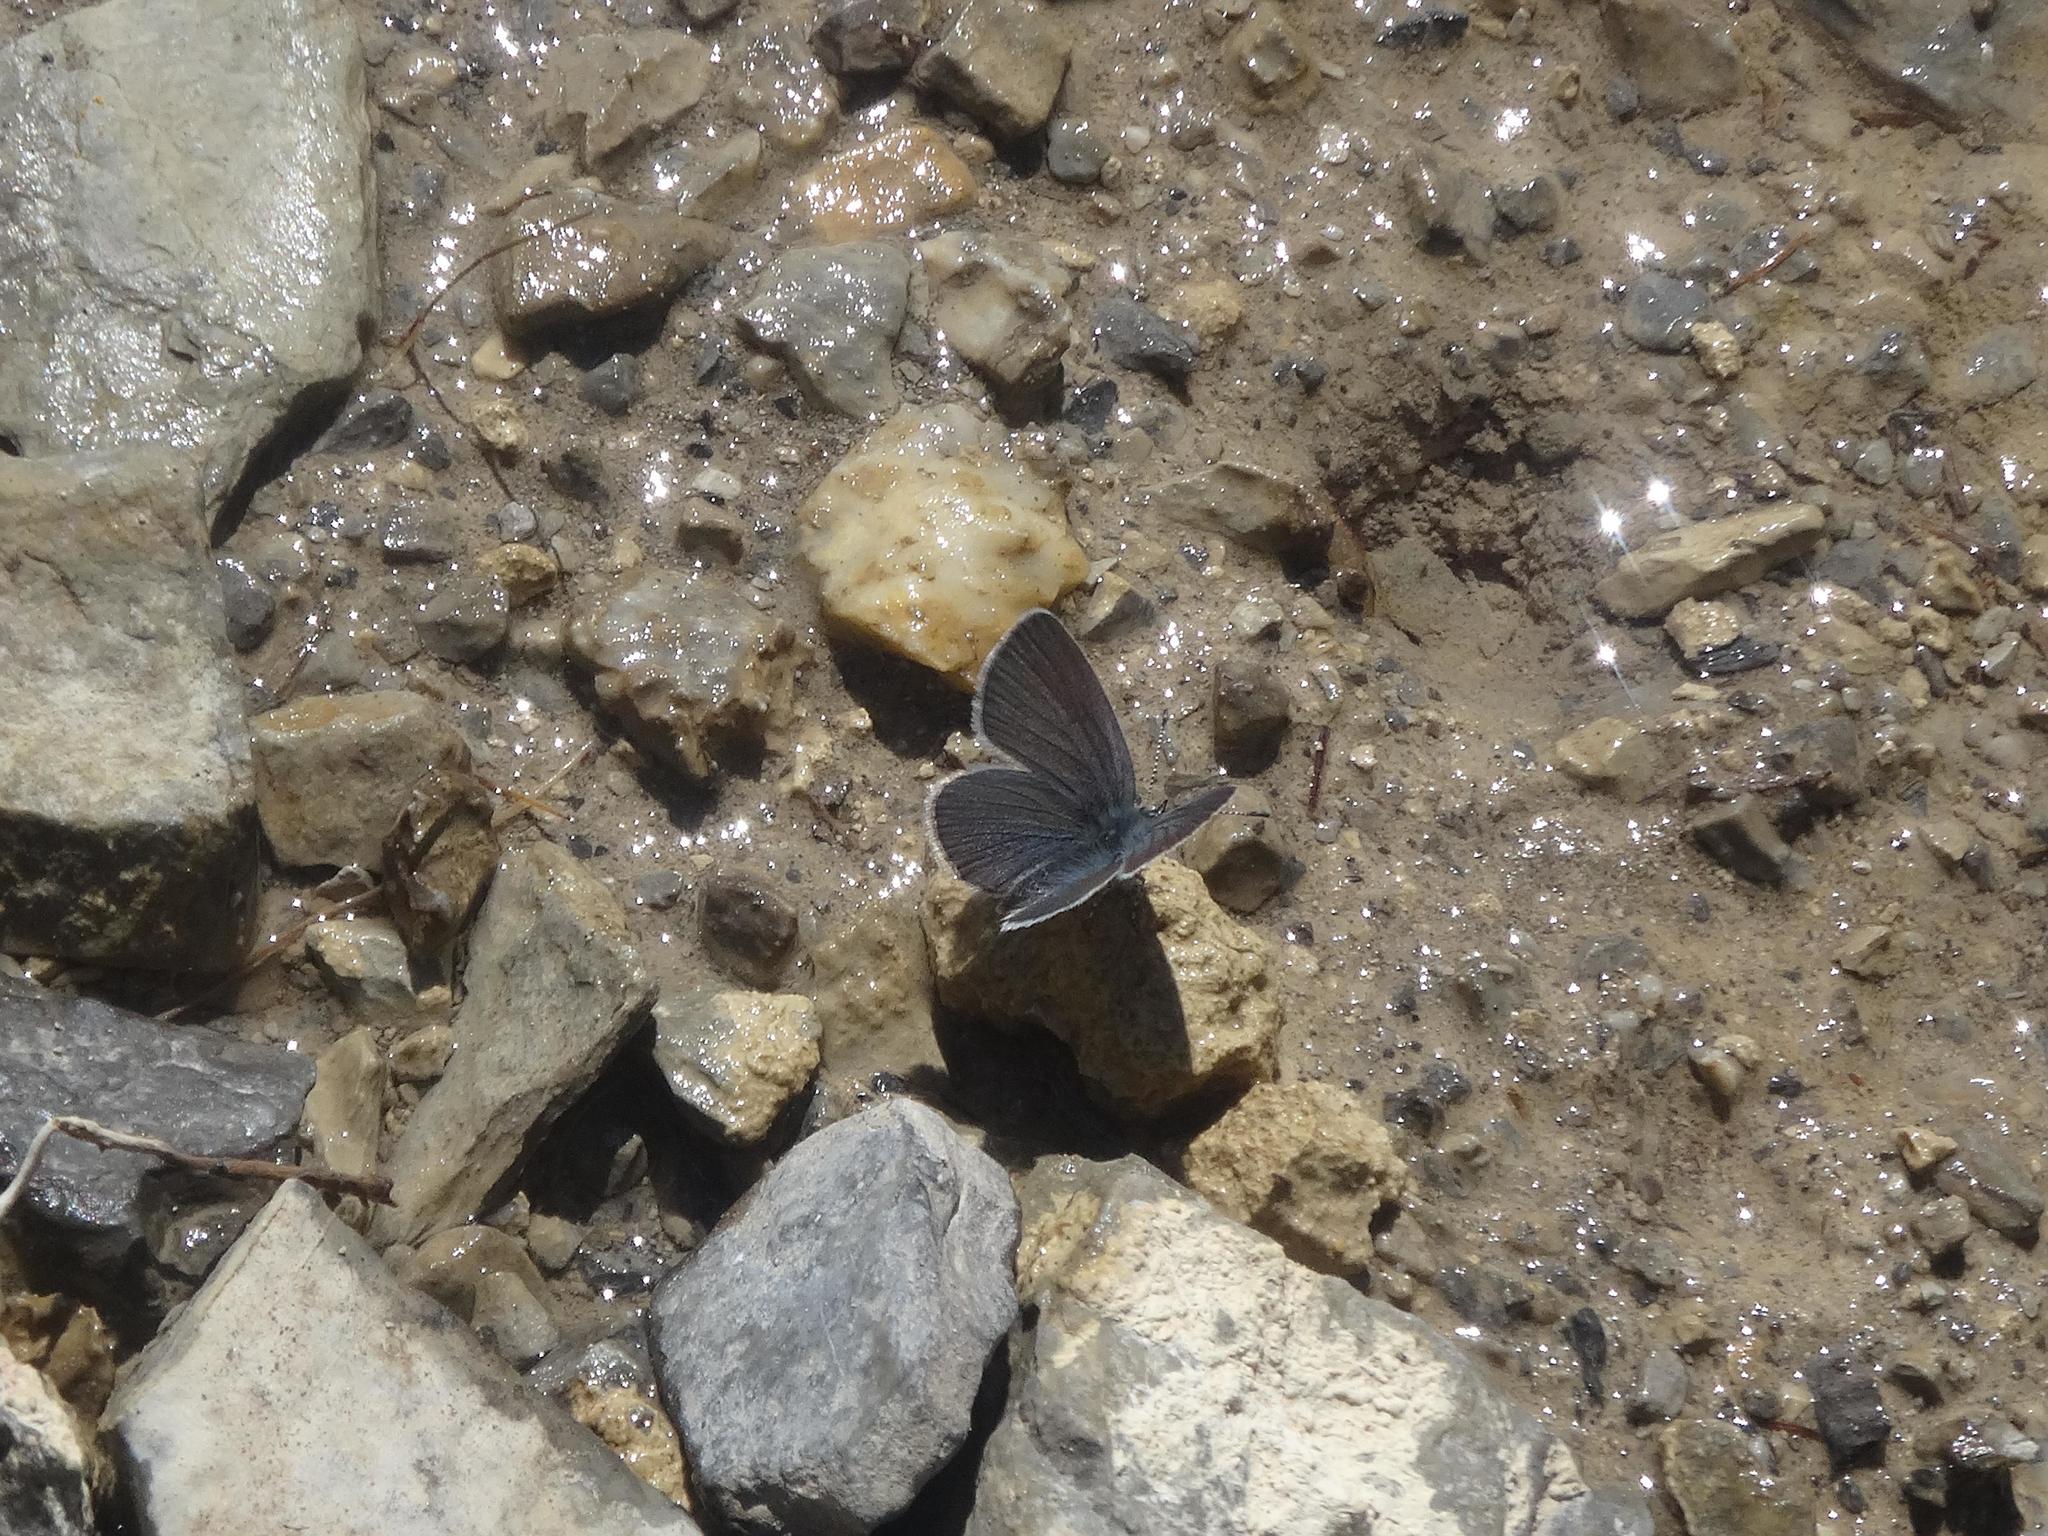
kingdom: Animalia
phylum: Arthropoda
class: Insecta
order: Lepidoptera
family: Lycaenidae
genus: Cupido
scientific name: Cupido minimus
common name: Small blue
